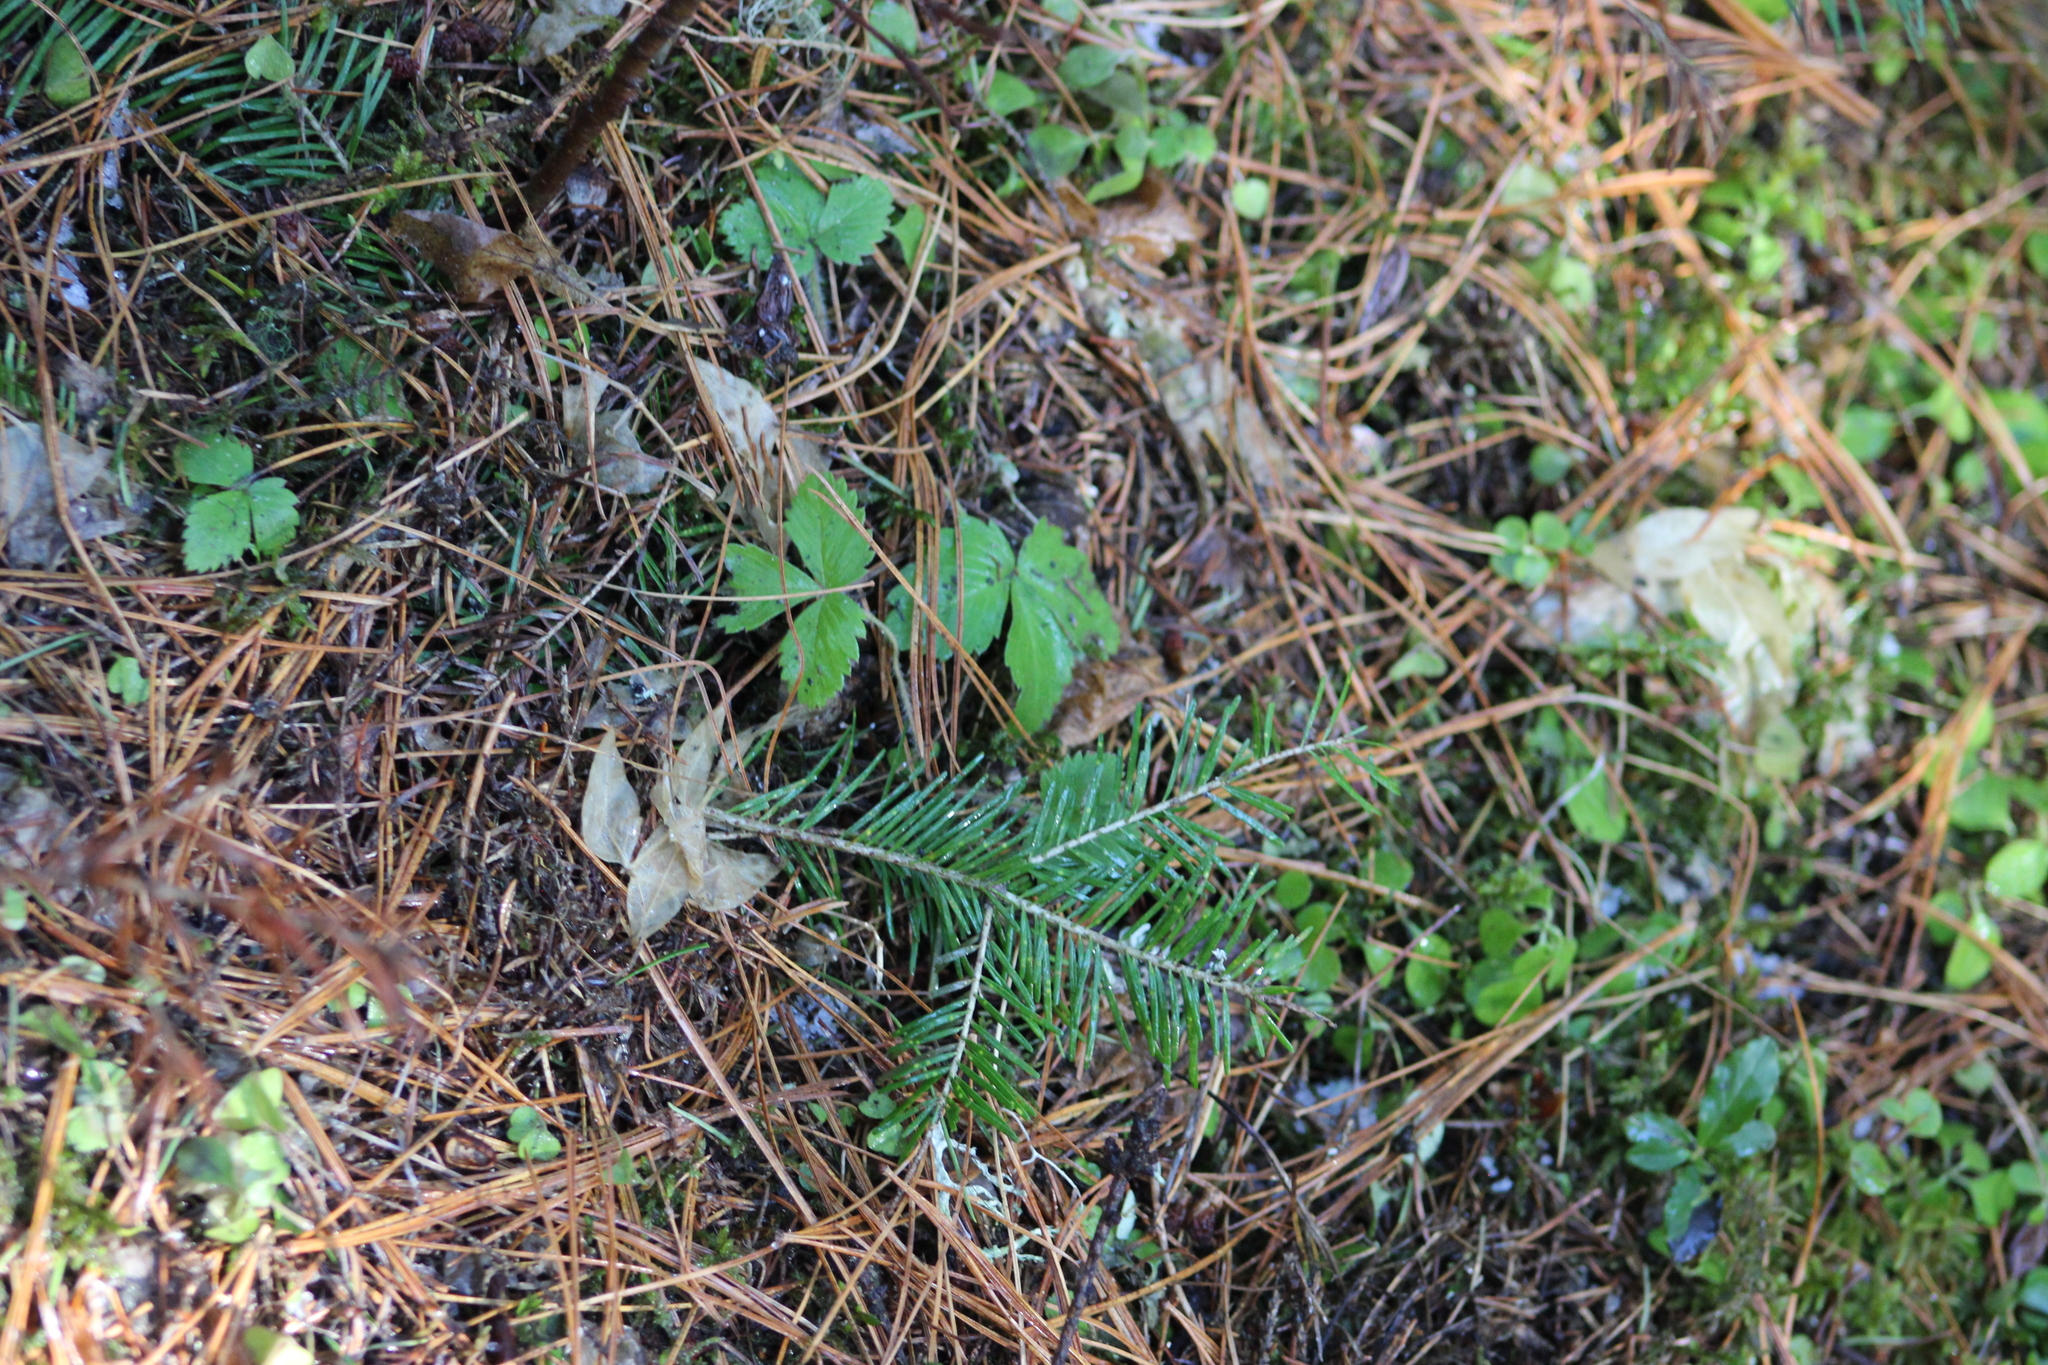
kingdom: Plantae
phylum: Tracheophyta
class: Magnoliopsida
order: Rosales
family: Rosaceae
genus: Fragaria
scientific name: Fragaria vesca
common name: Wild strawberry
